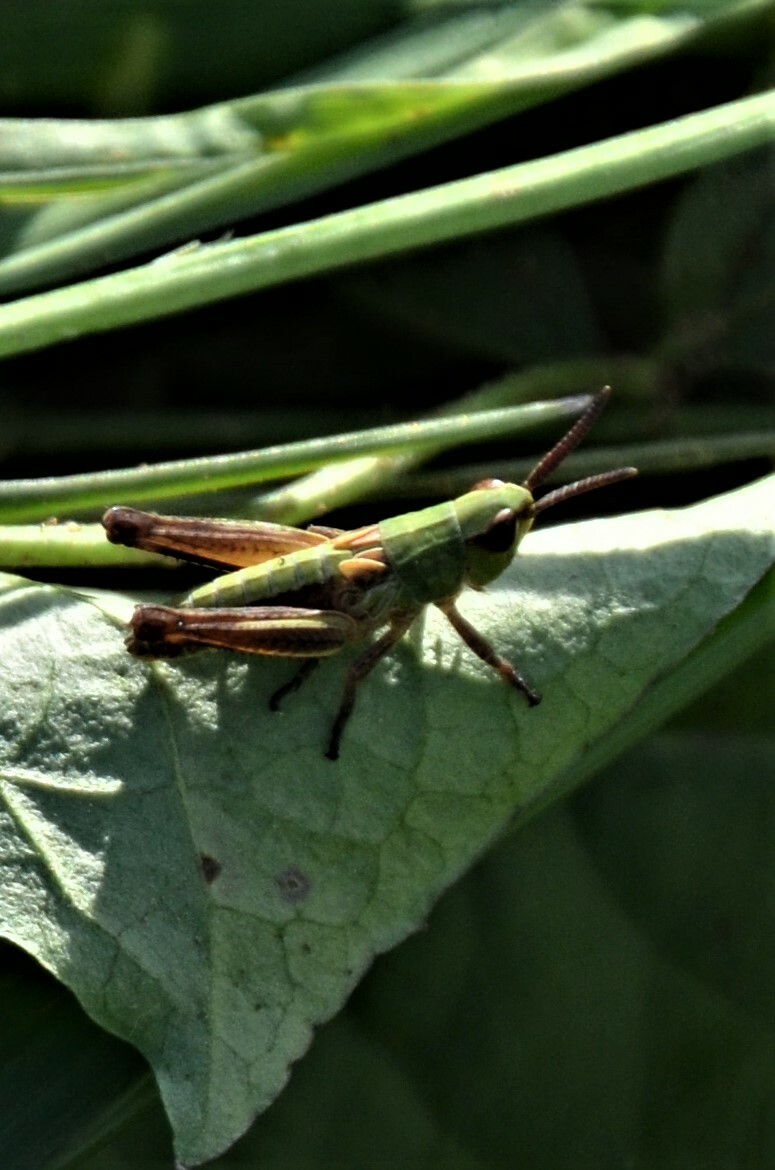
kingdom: Animalia
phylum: Arthropoda
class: Insecta
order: Orthoptera
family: Acrididae
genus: Pseudochorthippus
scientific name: Pseudochorthippus parallelus
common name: Meadow grasshopper
